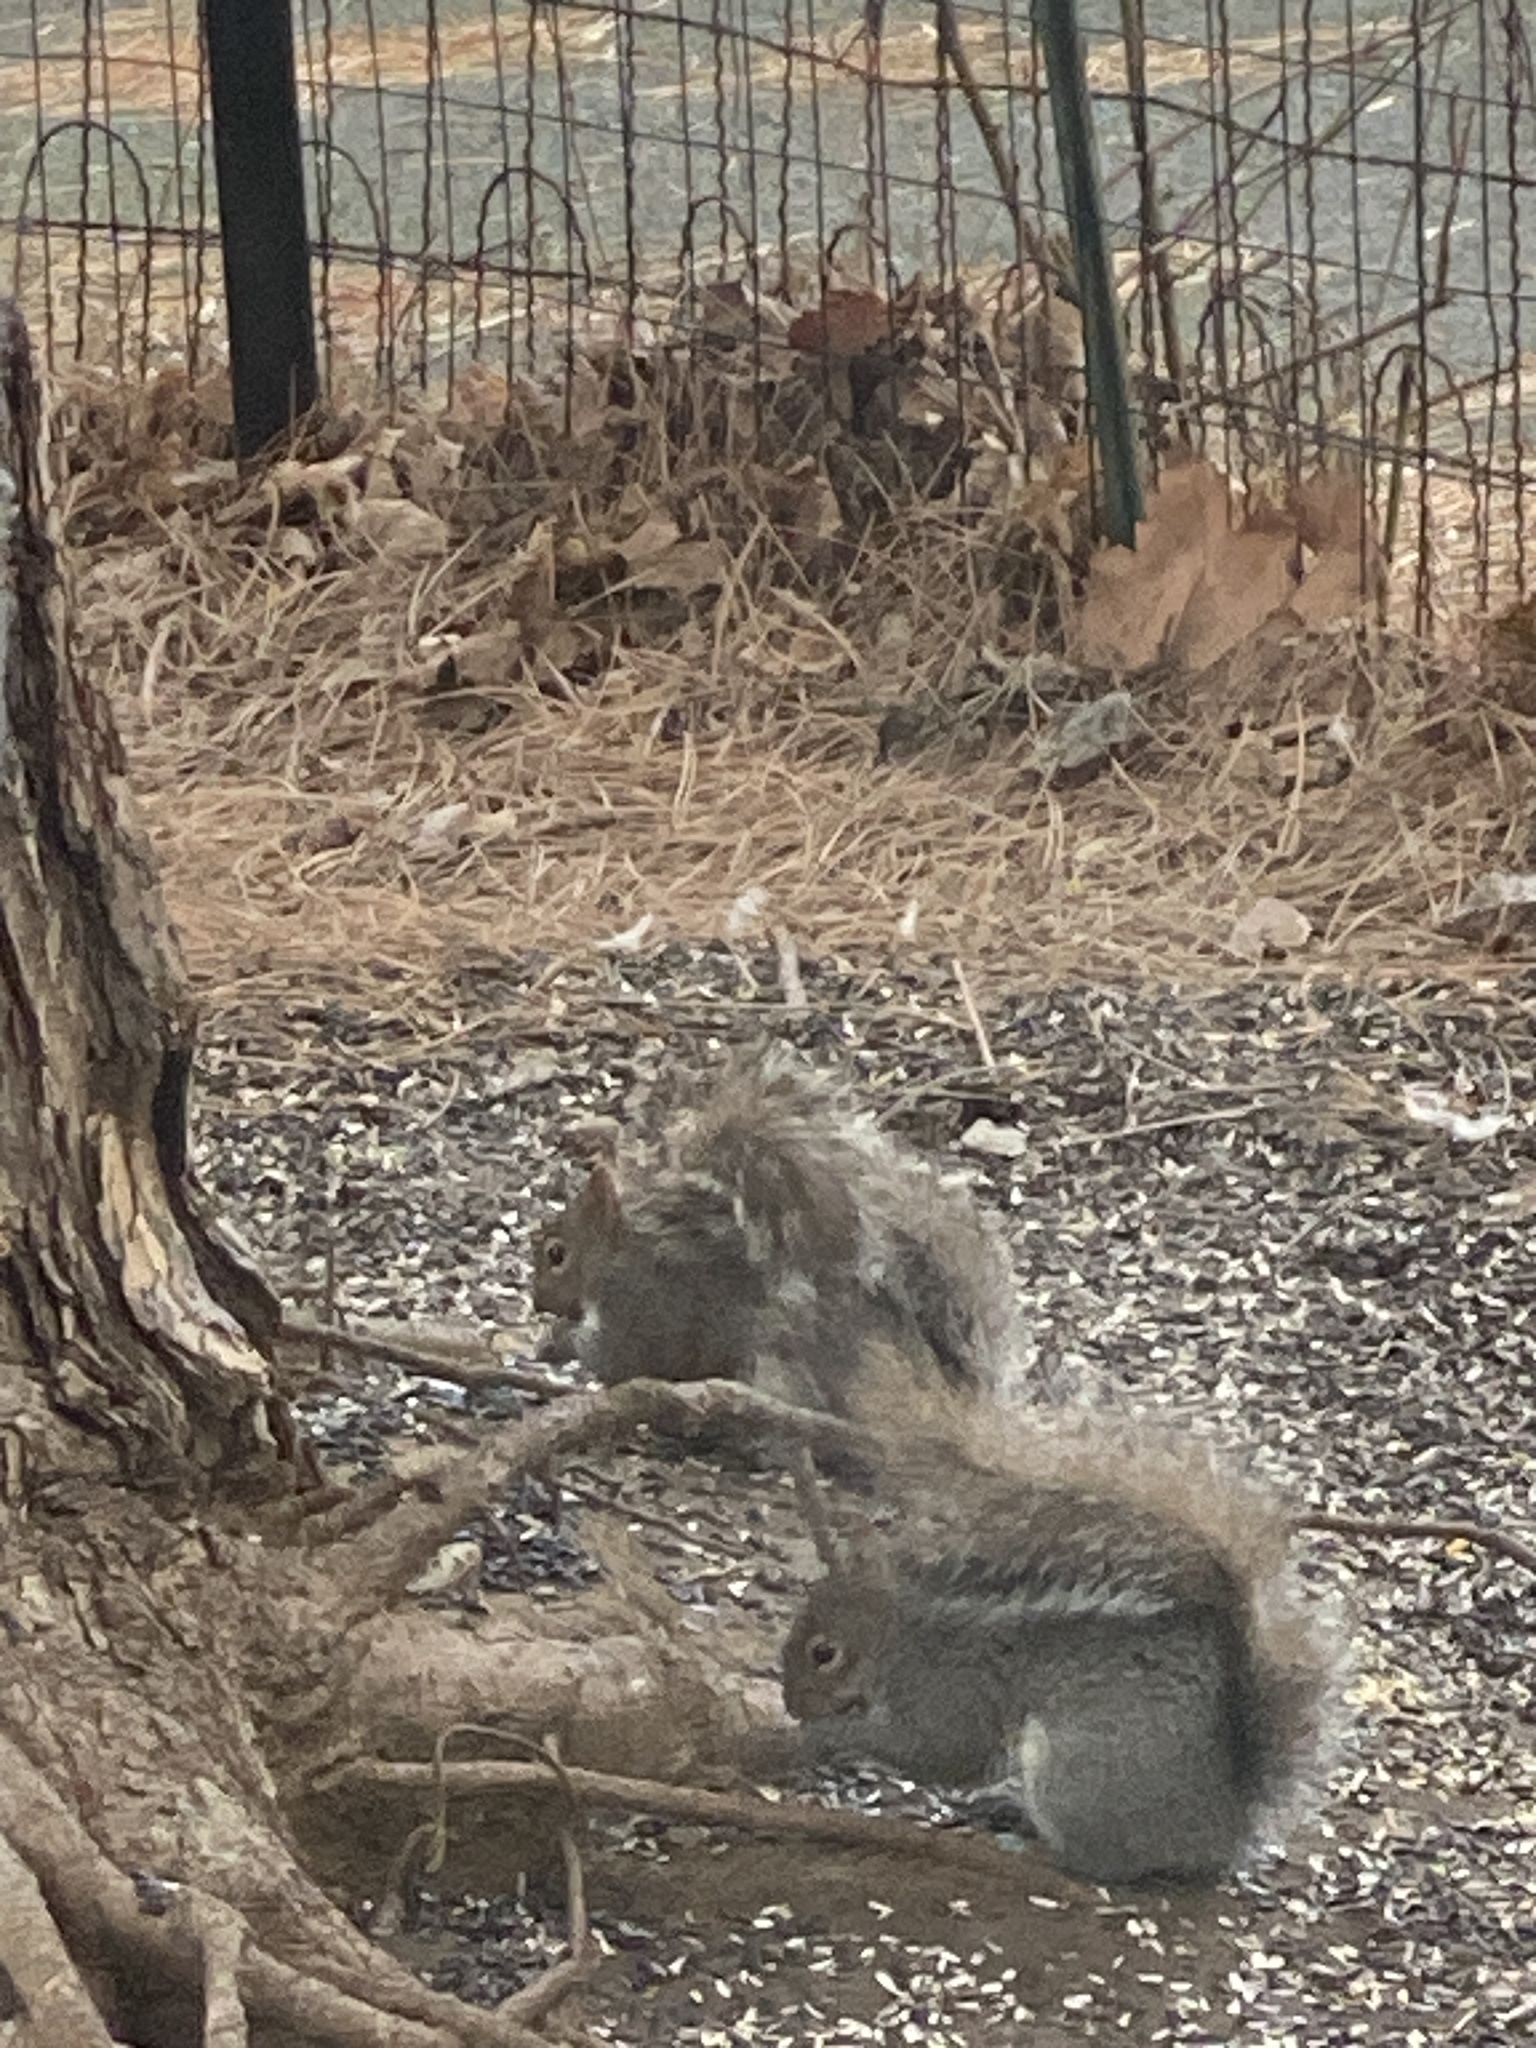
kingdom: Animalia
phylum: Chordata
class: Mammalia
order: Rodentia
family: Sciuridae
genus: Sciurus
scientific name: Sciurus carolinensis
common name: Eastern gray squirrel
